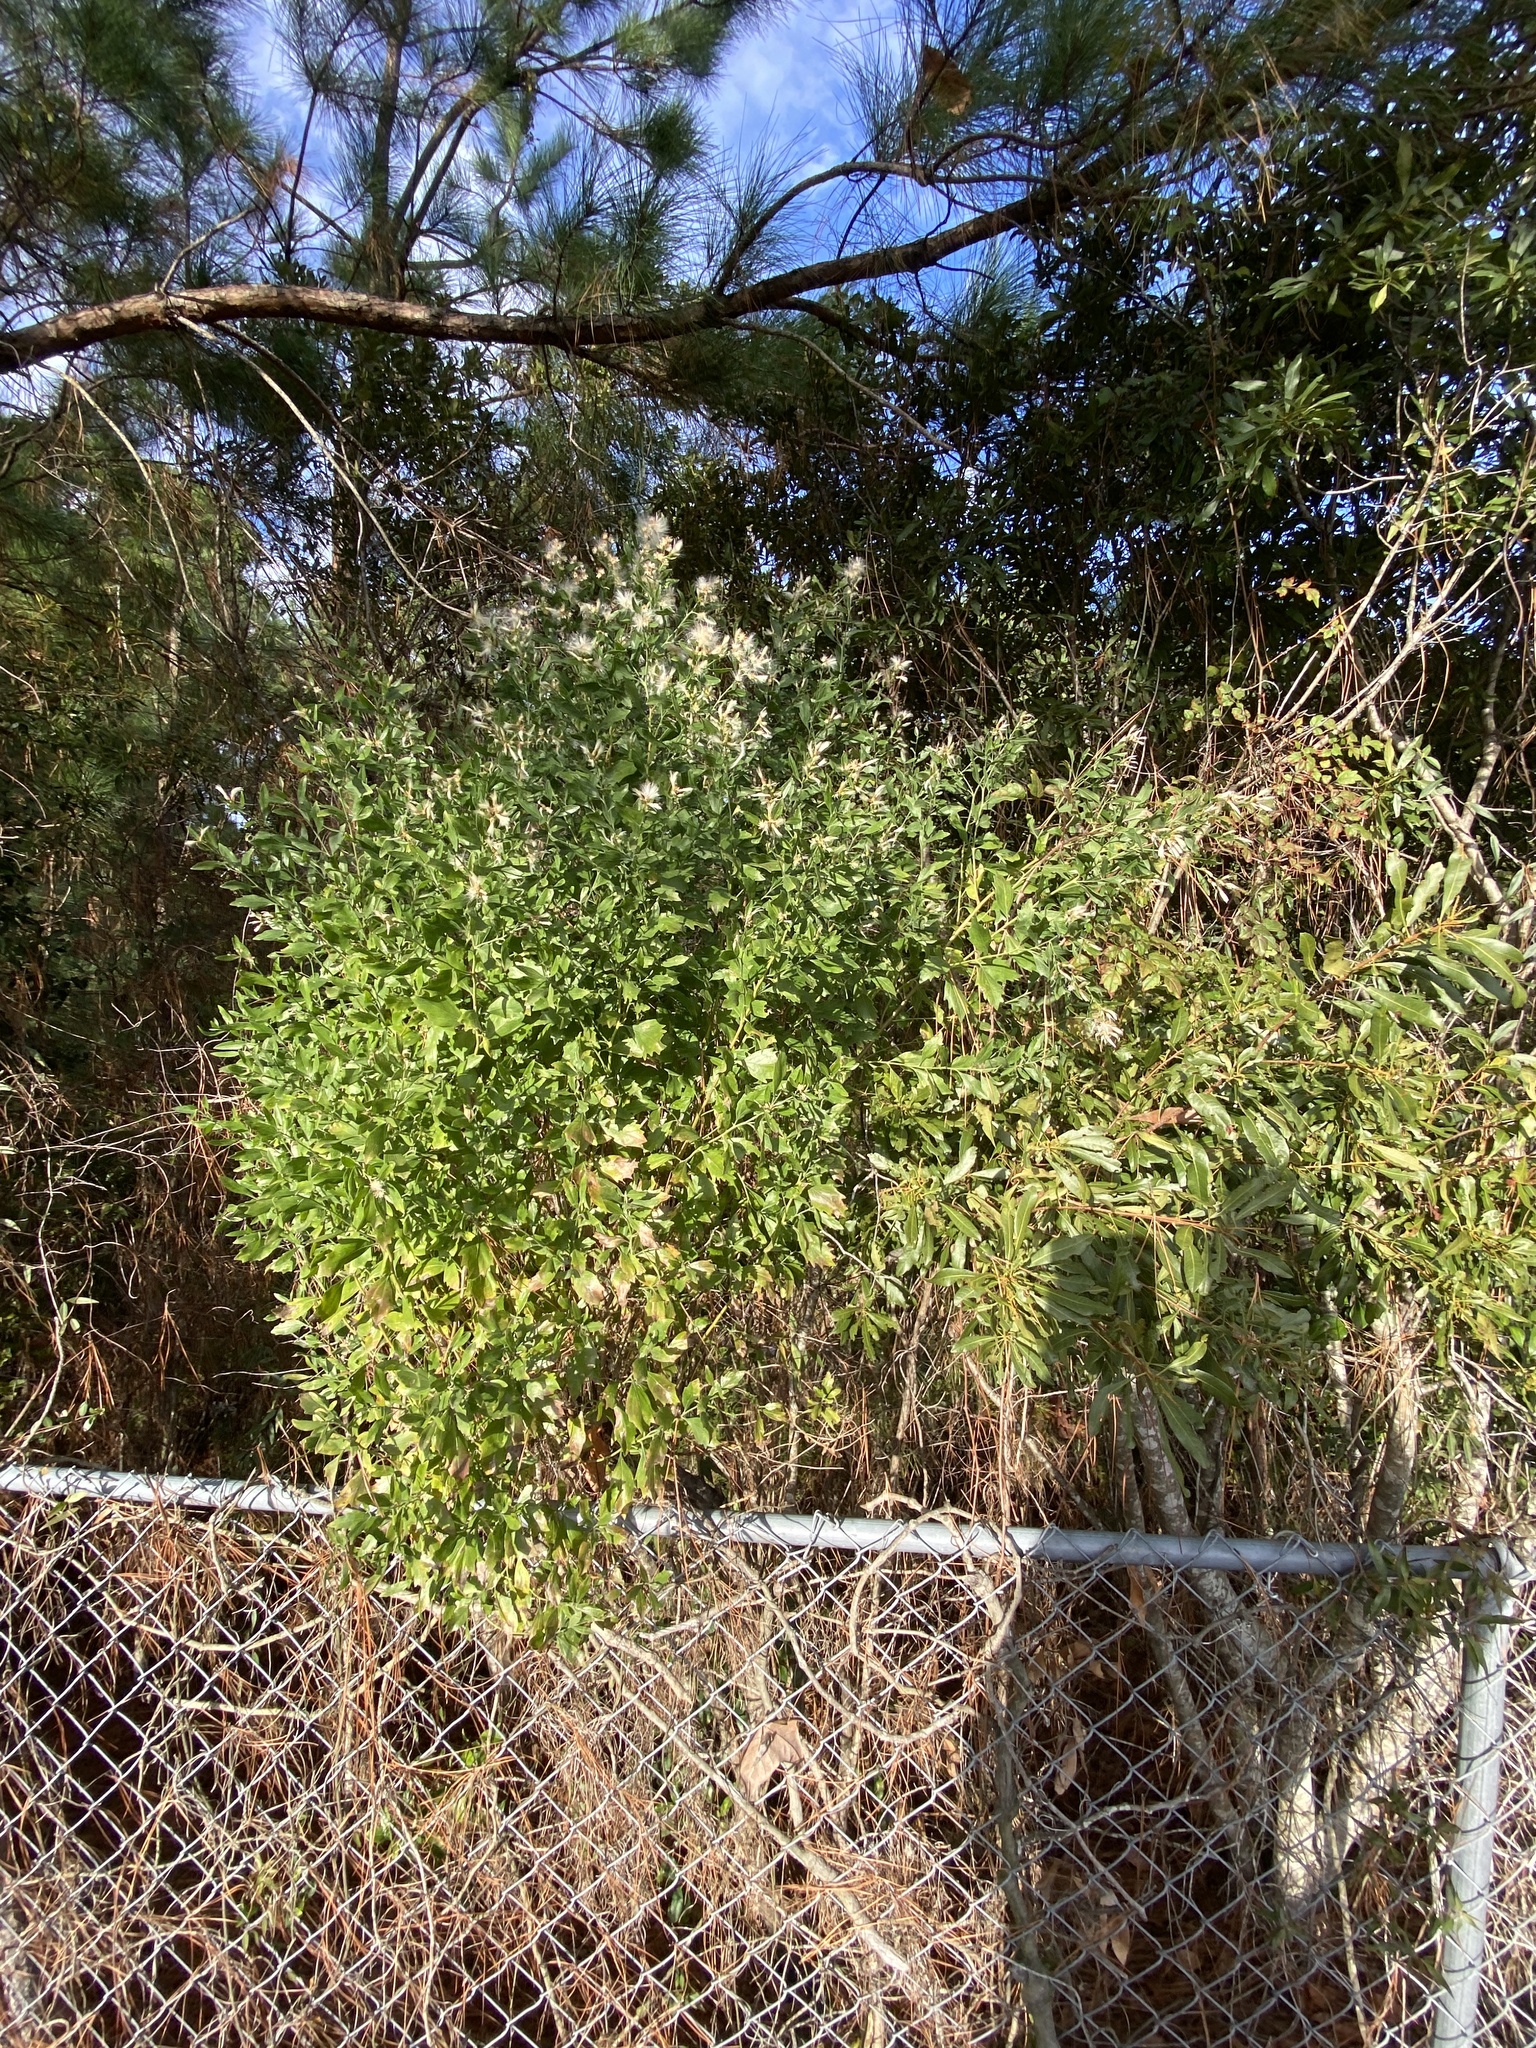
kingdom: Plantae
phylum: Tracheophyta
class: Magnoliopsida
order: Asterales
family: Asteraceae
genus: Baccharis
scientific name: Baccharis halimifolia
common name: Eastern baccharis
